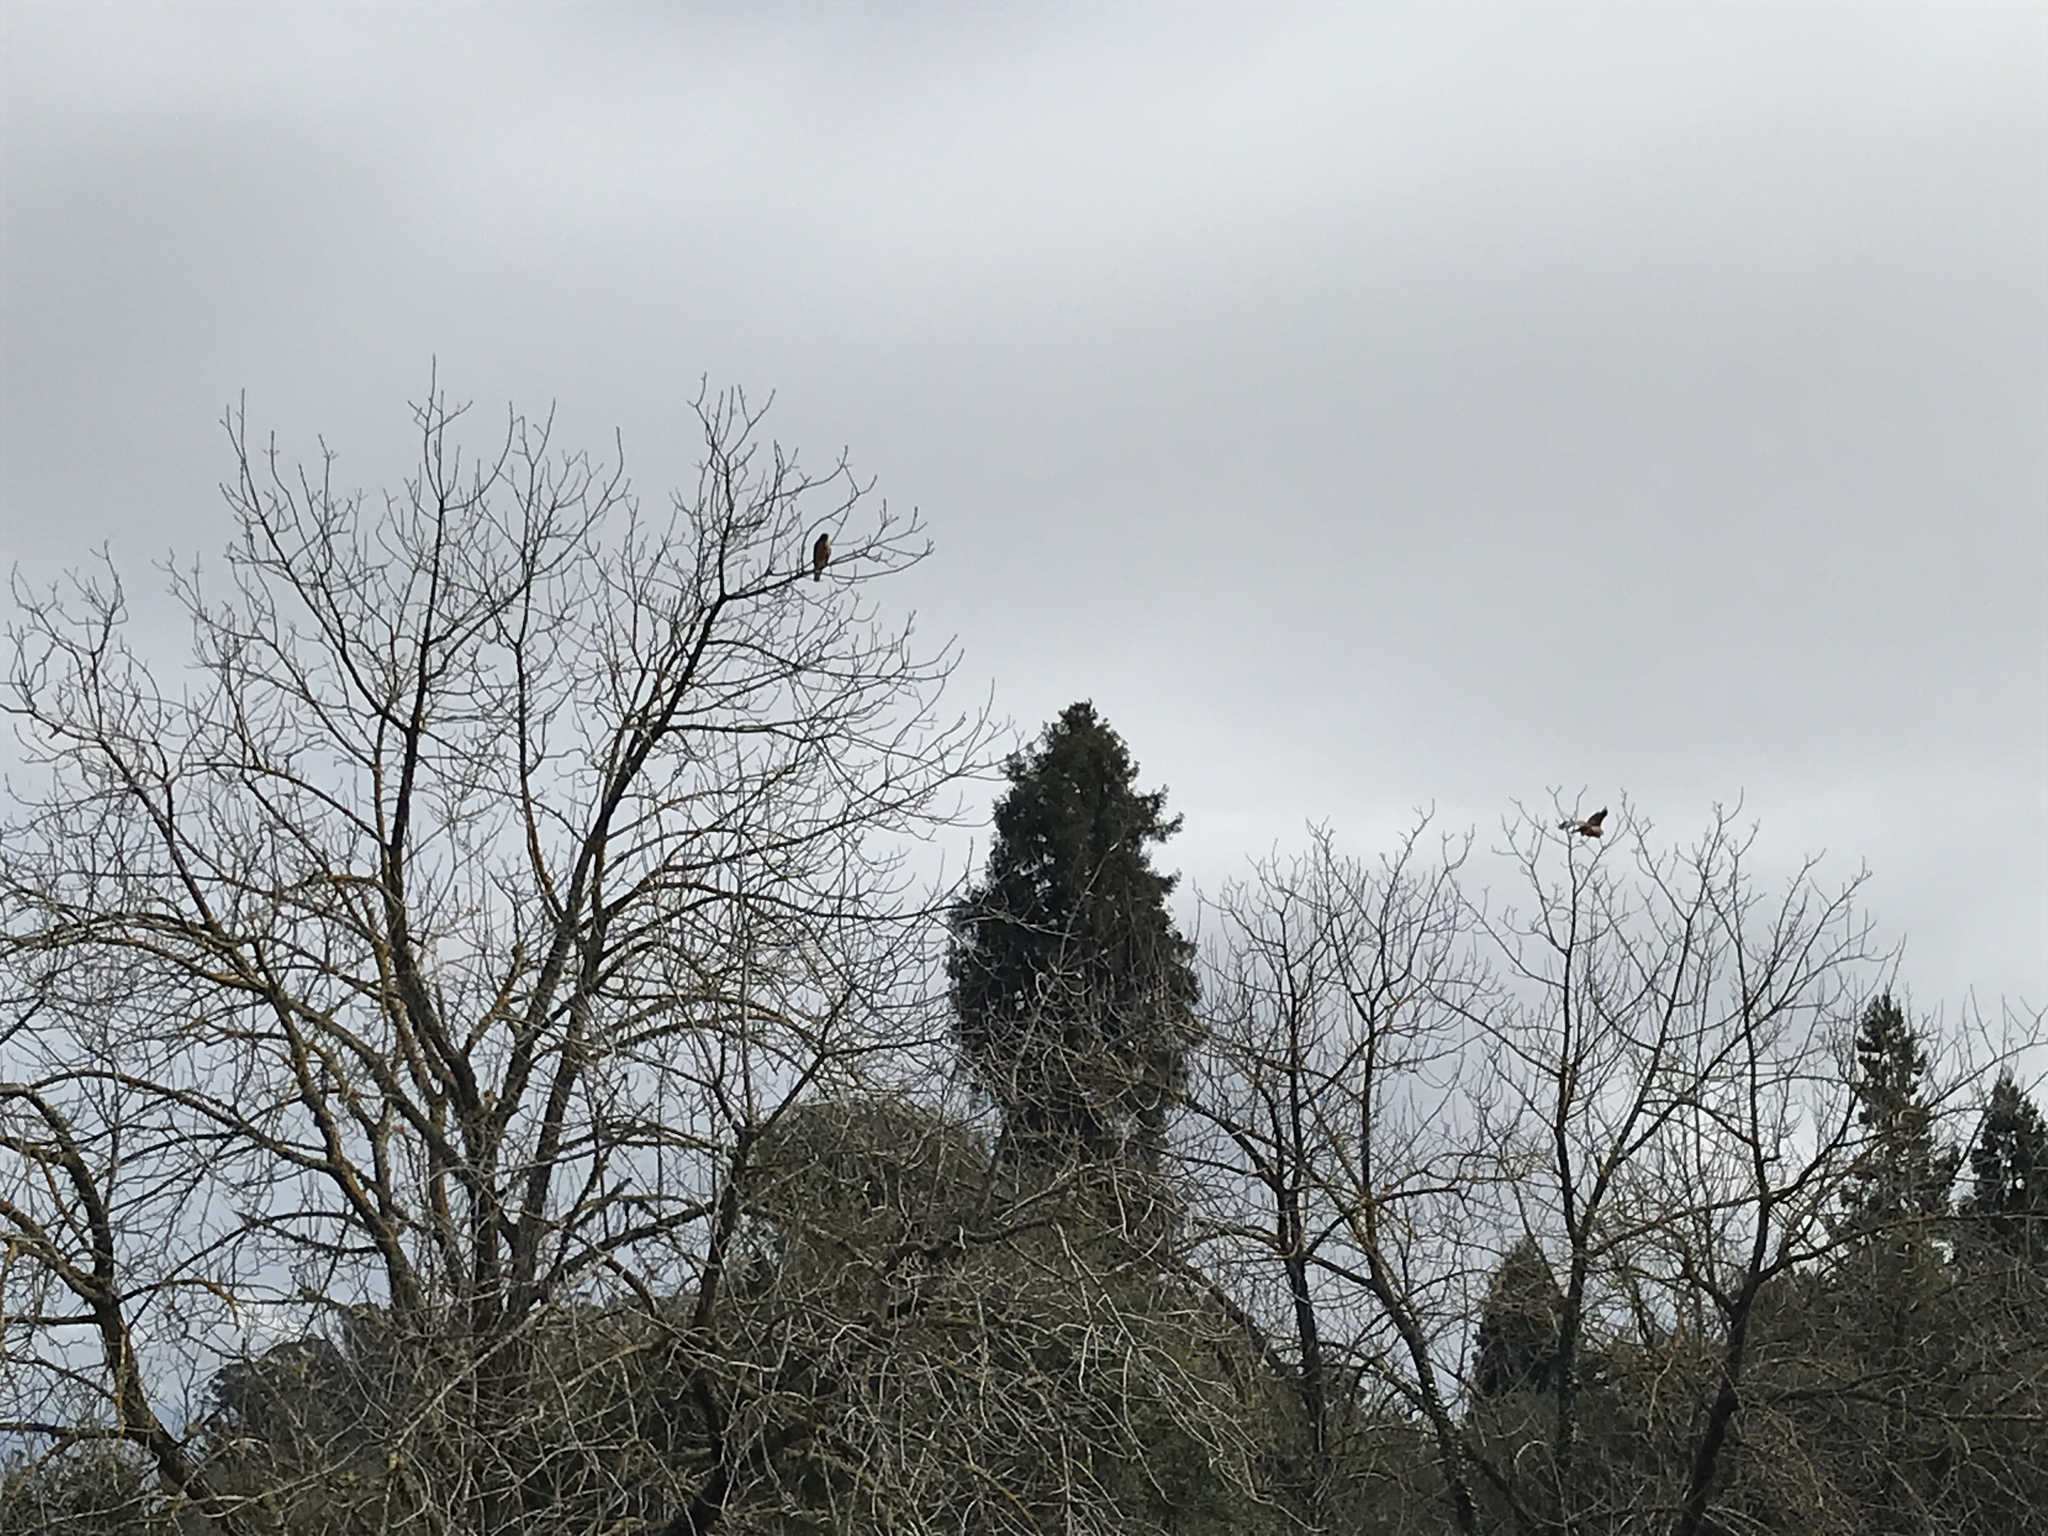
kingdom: Animalia
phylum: Chordata
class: Aves
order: Accipitriformes
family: Accipitridae
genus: Buteo
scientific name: Buteo lineatus
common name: Red-shouldered hawk
